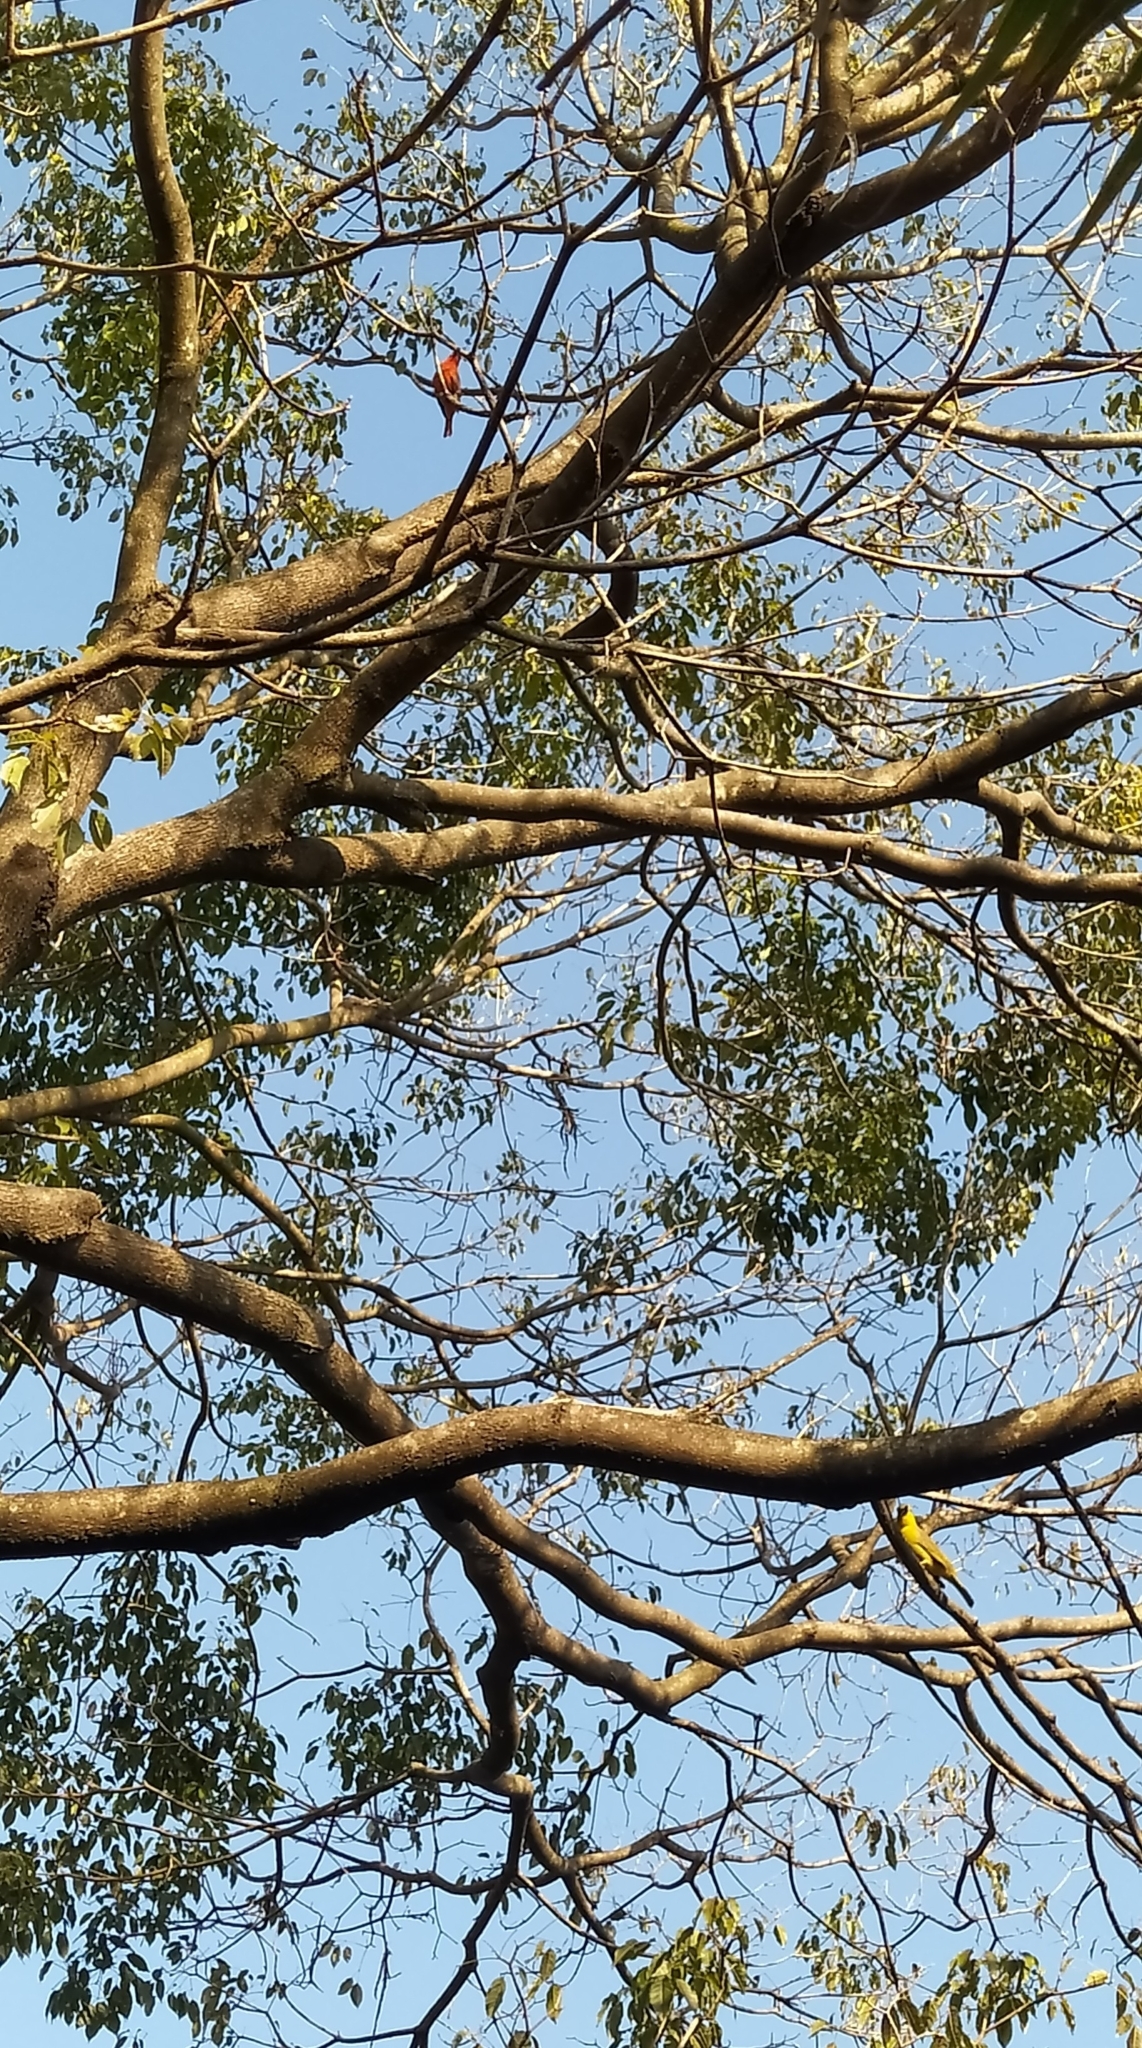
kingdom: Animalia
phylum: Chordata
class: Aves
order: Passeriformes
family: Cardinalidae
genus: Piranga
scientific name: Piranga flava
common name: Red tanager
